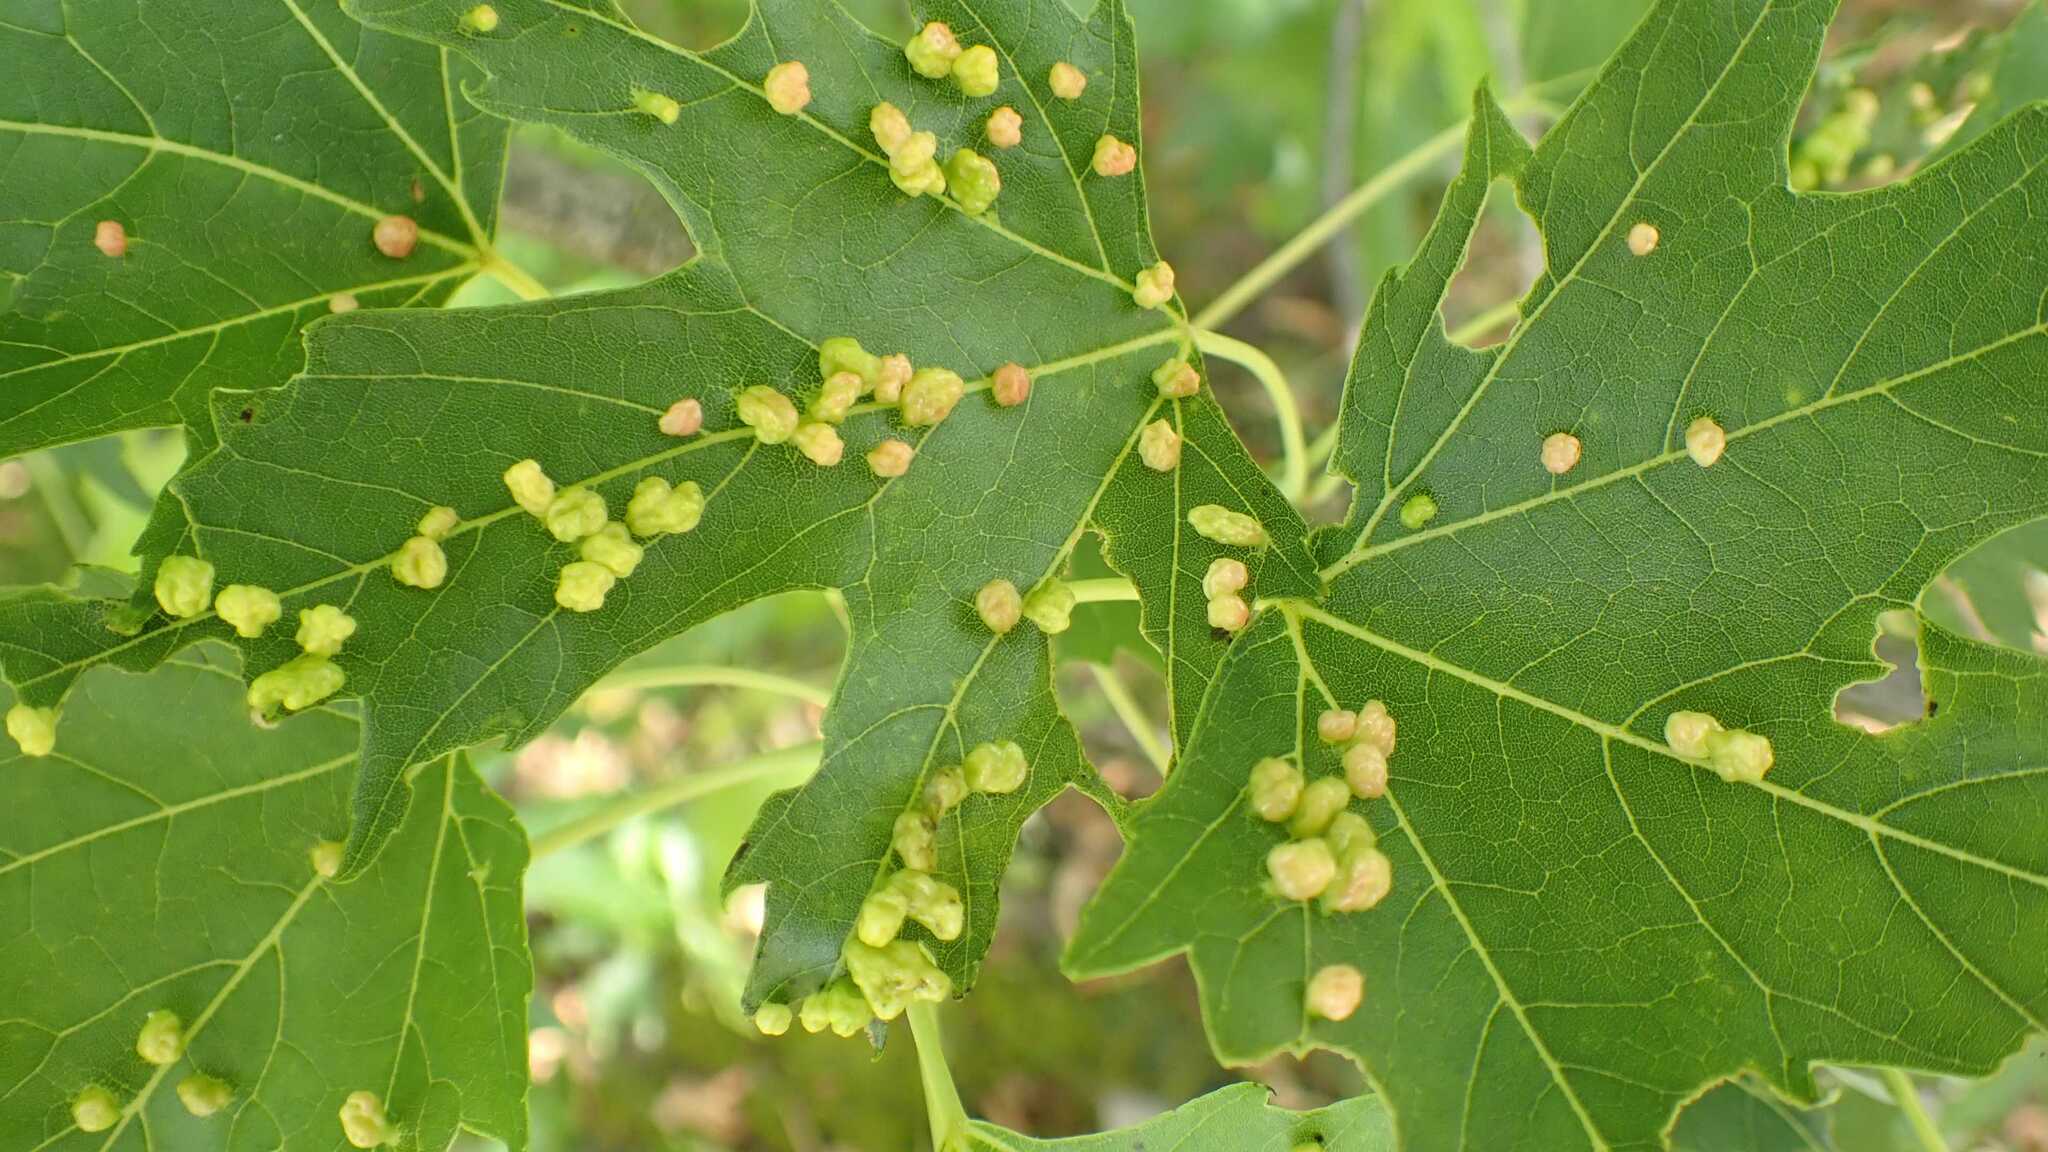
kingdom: Animalia
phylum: Arthropoda
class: Arachnida
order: Trombidiformes
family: Eriophyidae
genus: Vasates
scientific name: Vasates quadripedes
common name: Maple bladder gall mite
